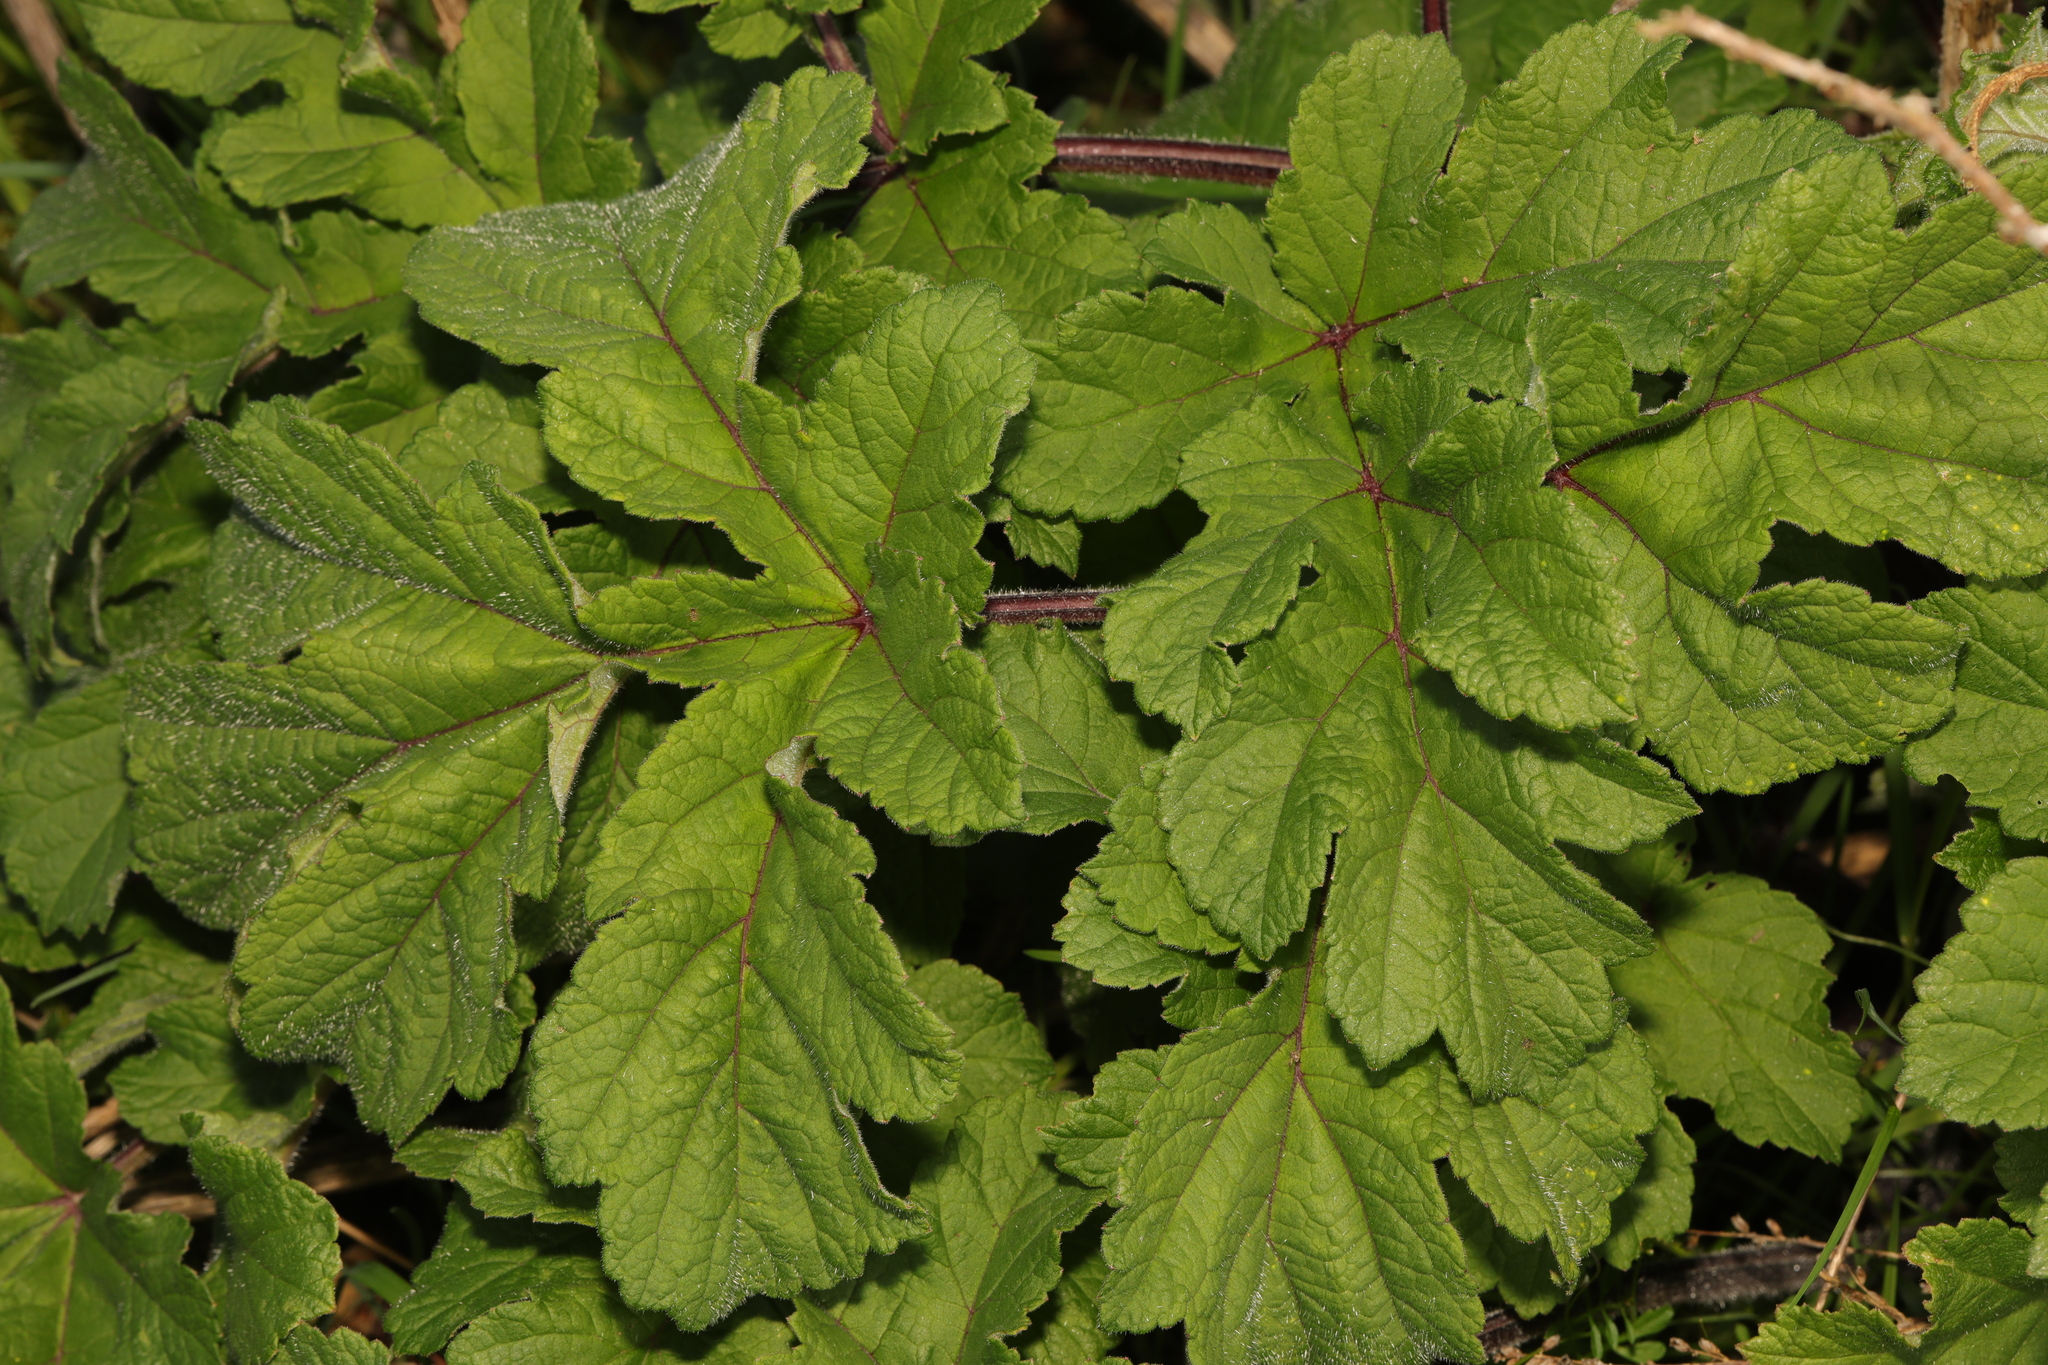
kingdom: Plantae
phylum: Tracheophyta
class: Magnoliopsida
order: Apiales
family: Apiaceae
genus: Heracleum
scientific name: Heracleum sphondylium
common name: Hogweed
